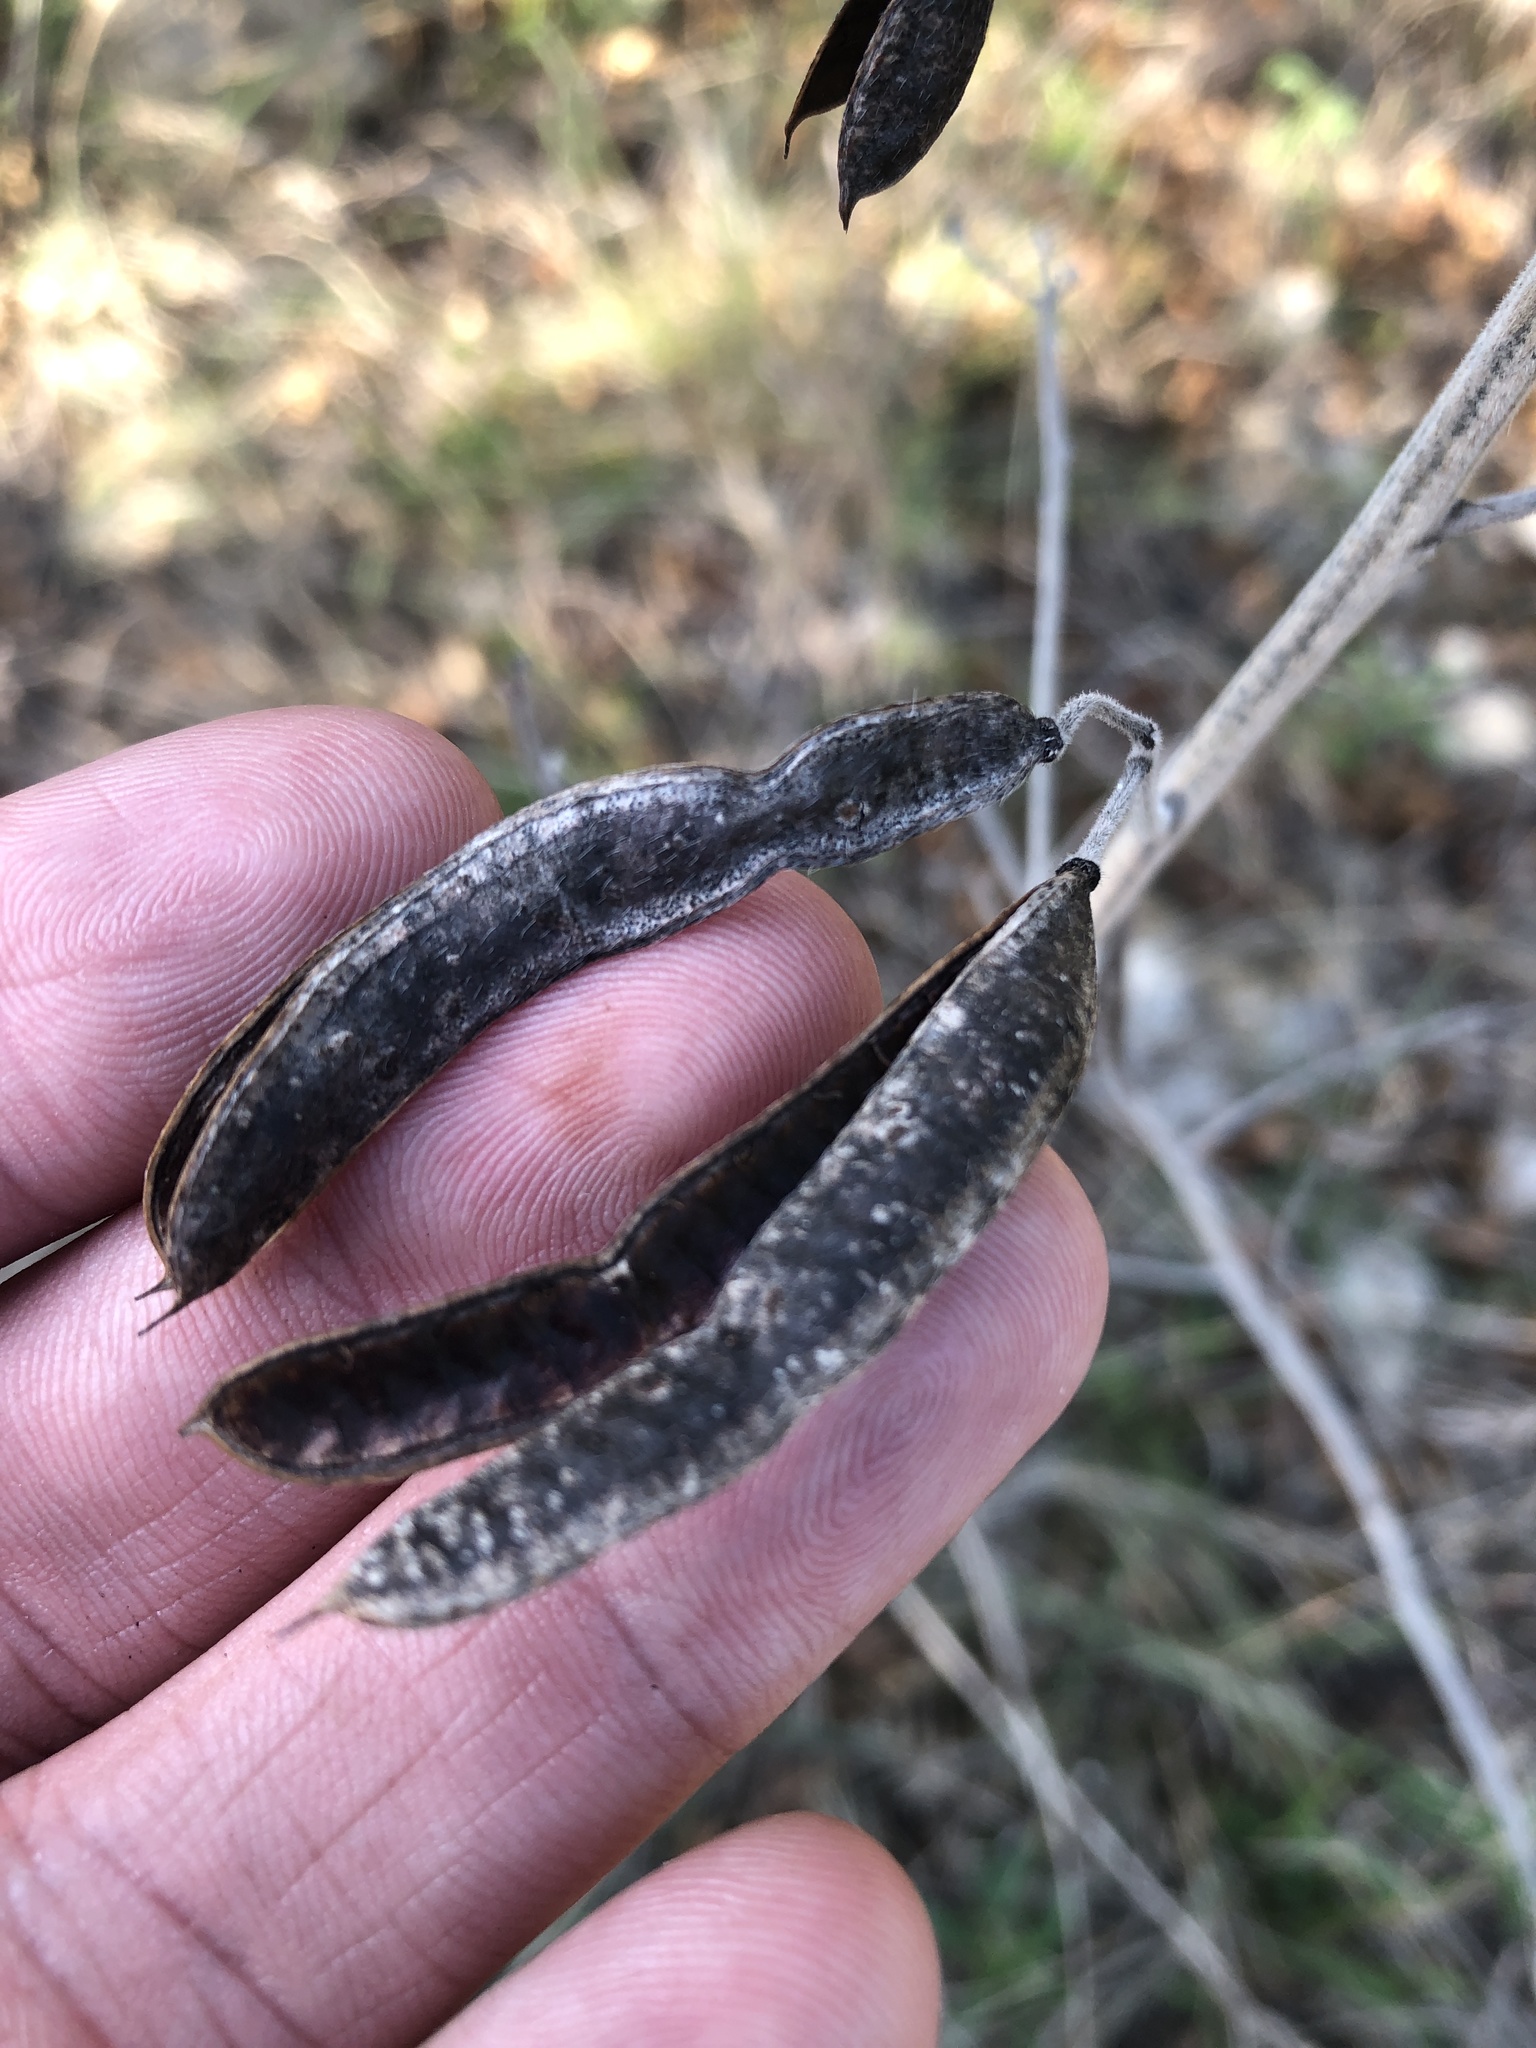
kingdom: Plantae
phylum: Tracheophyta
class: Magnoliopsida
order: Fabales
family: Fabaceae
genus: Senna
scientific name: Senna lindheimeriana
